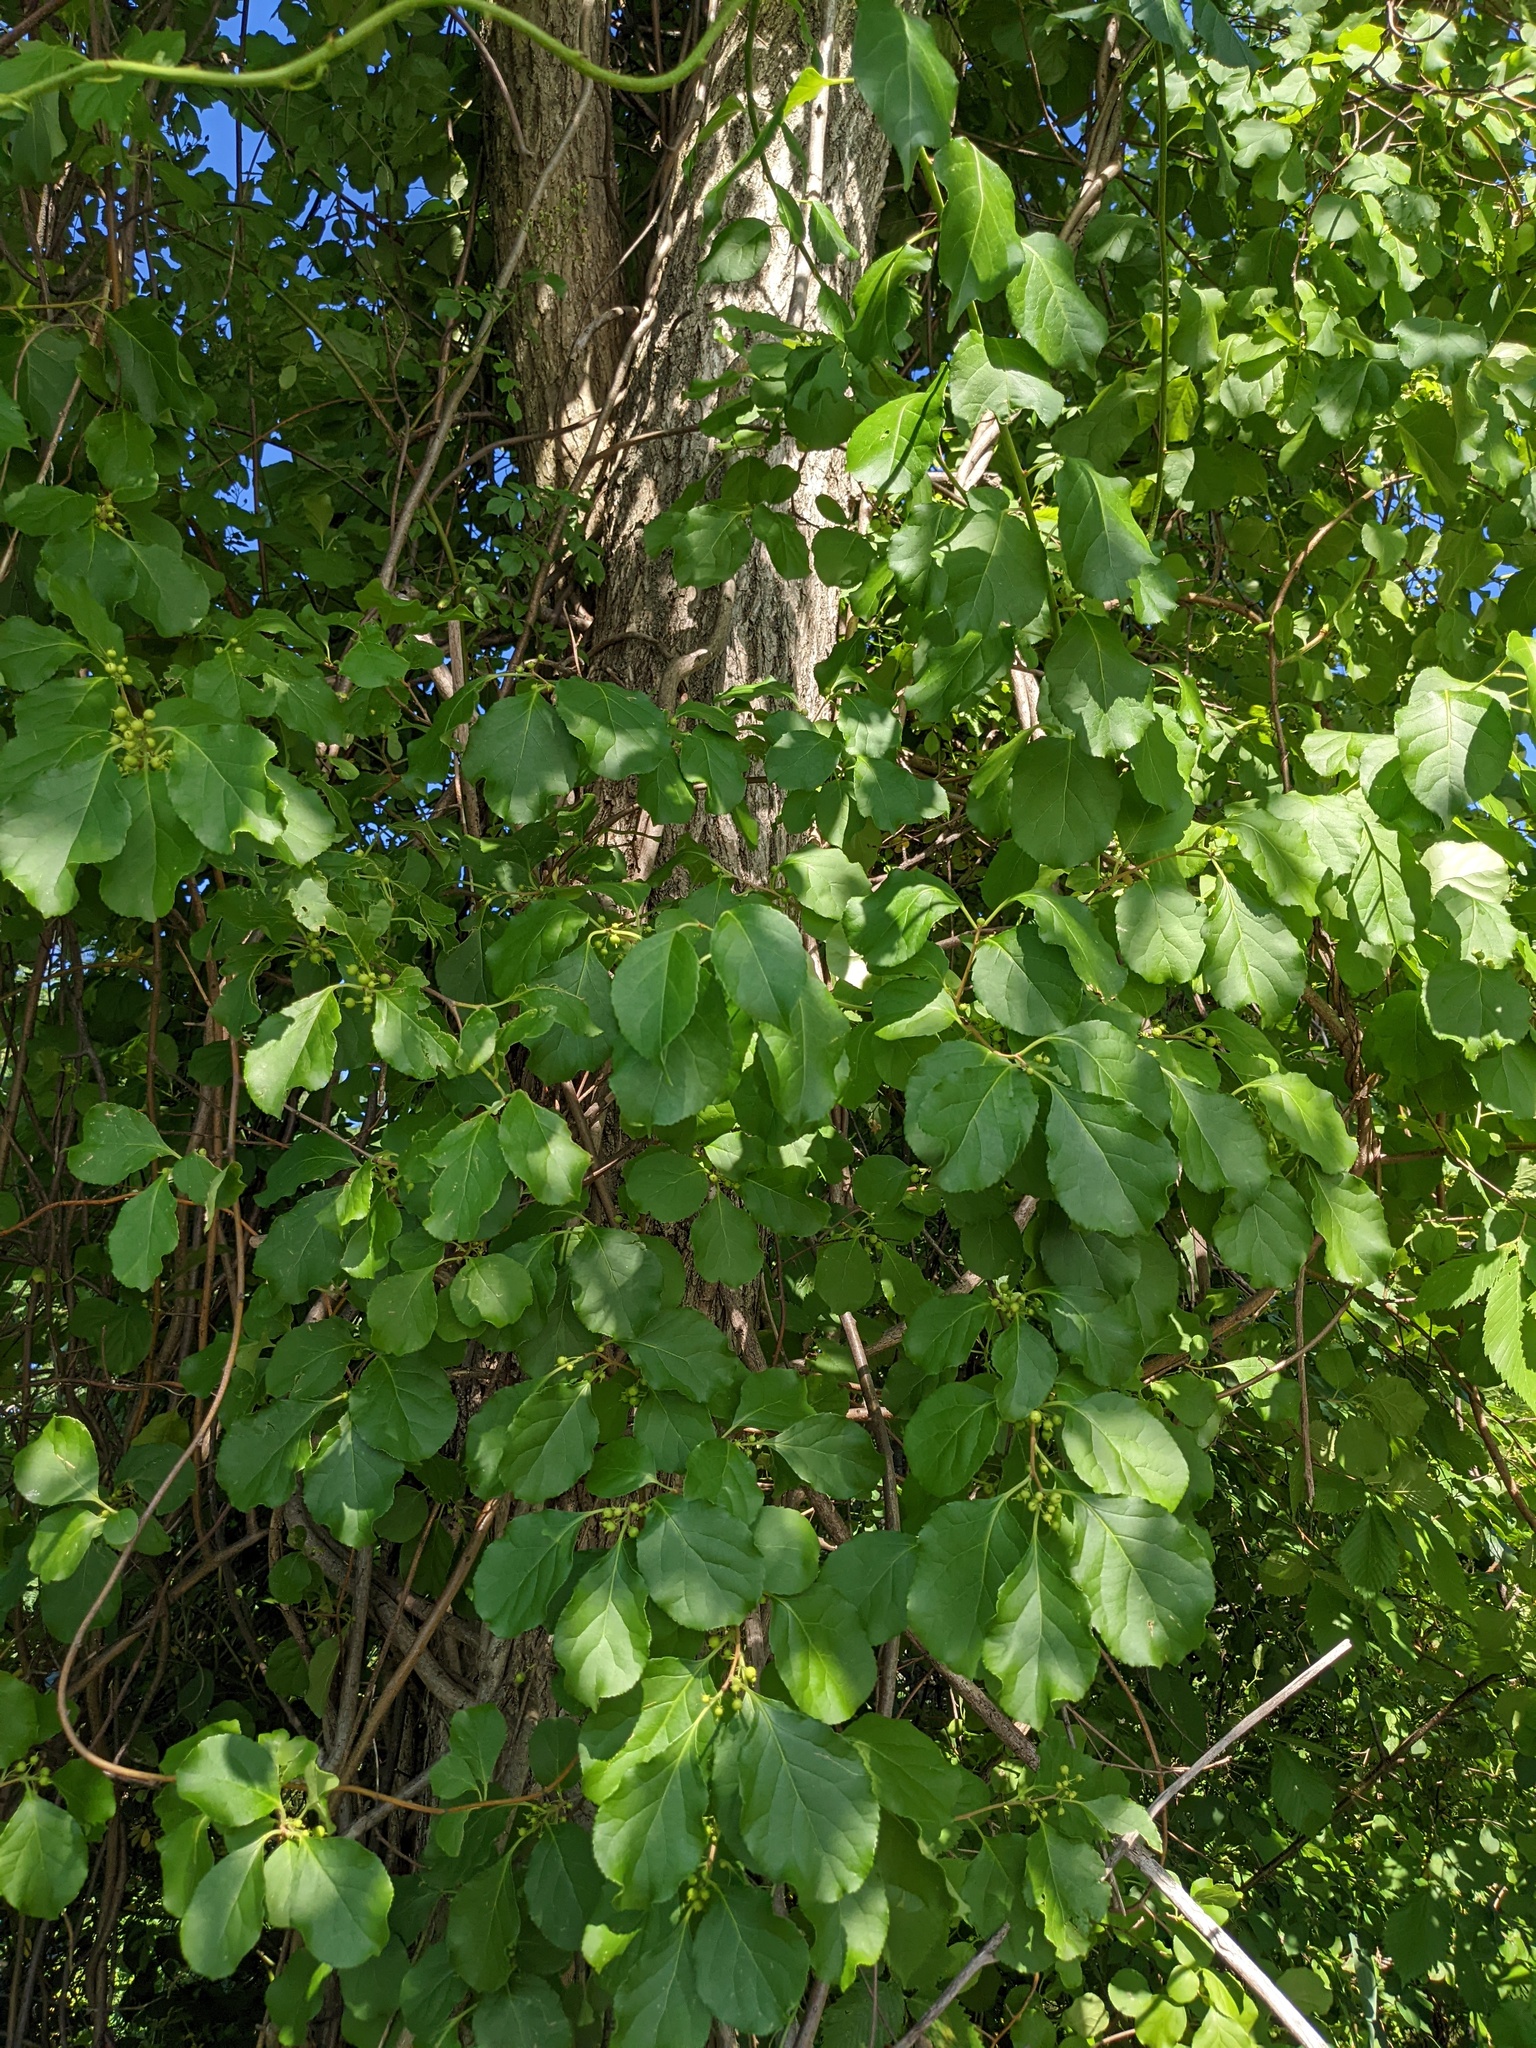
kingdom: Plantae
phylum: Tracheophyta
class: Magnoliopsida
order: Celastrales
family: Celastraceae
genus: Celastrus
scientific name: Celastrus orbiculatus
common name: Oriental bittersweet
